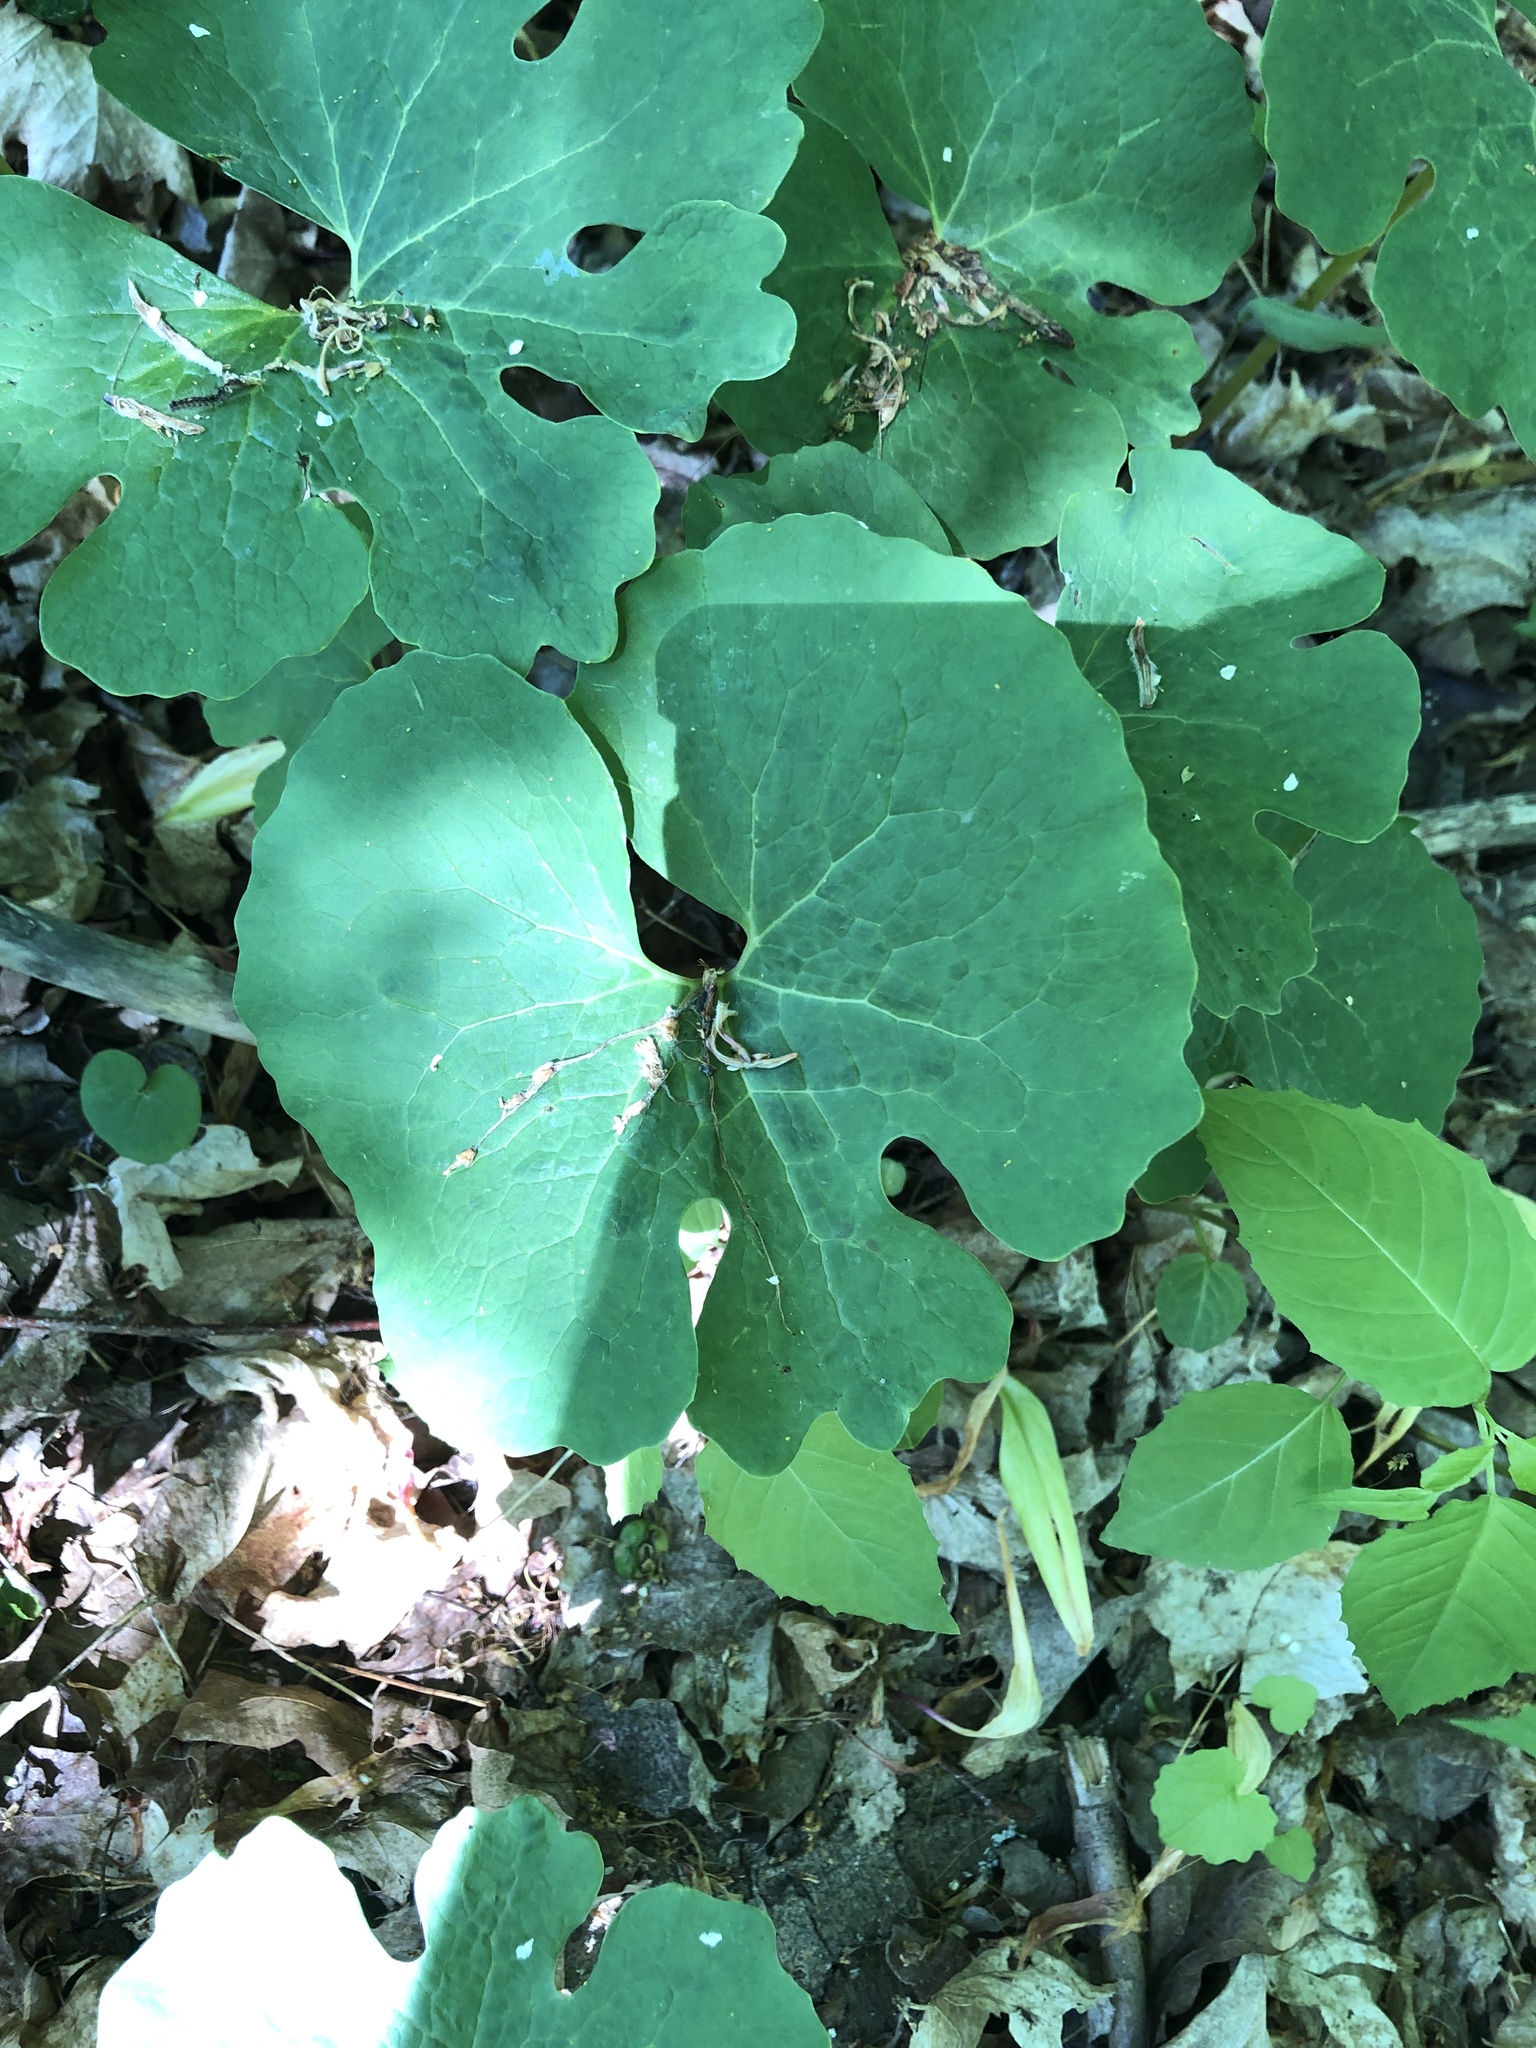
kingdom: Plantae
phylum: Tracheophyta
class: Magnoliopsida
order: Ranunculales
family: Papaveraceae
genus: Sanguinaria
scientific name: Sanguinaria canadensis
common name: Bloodroot
